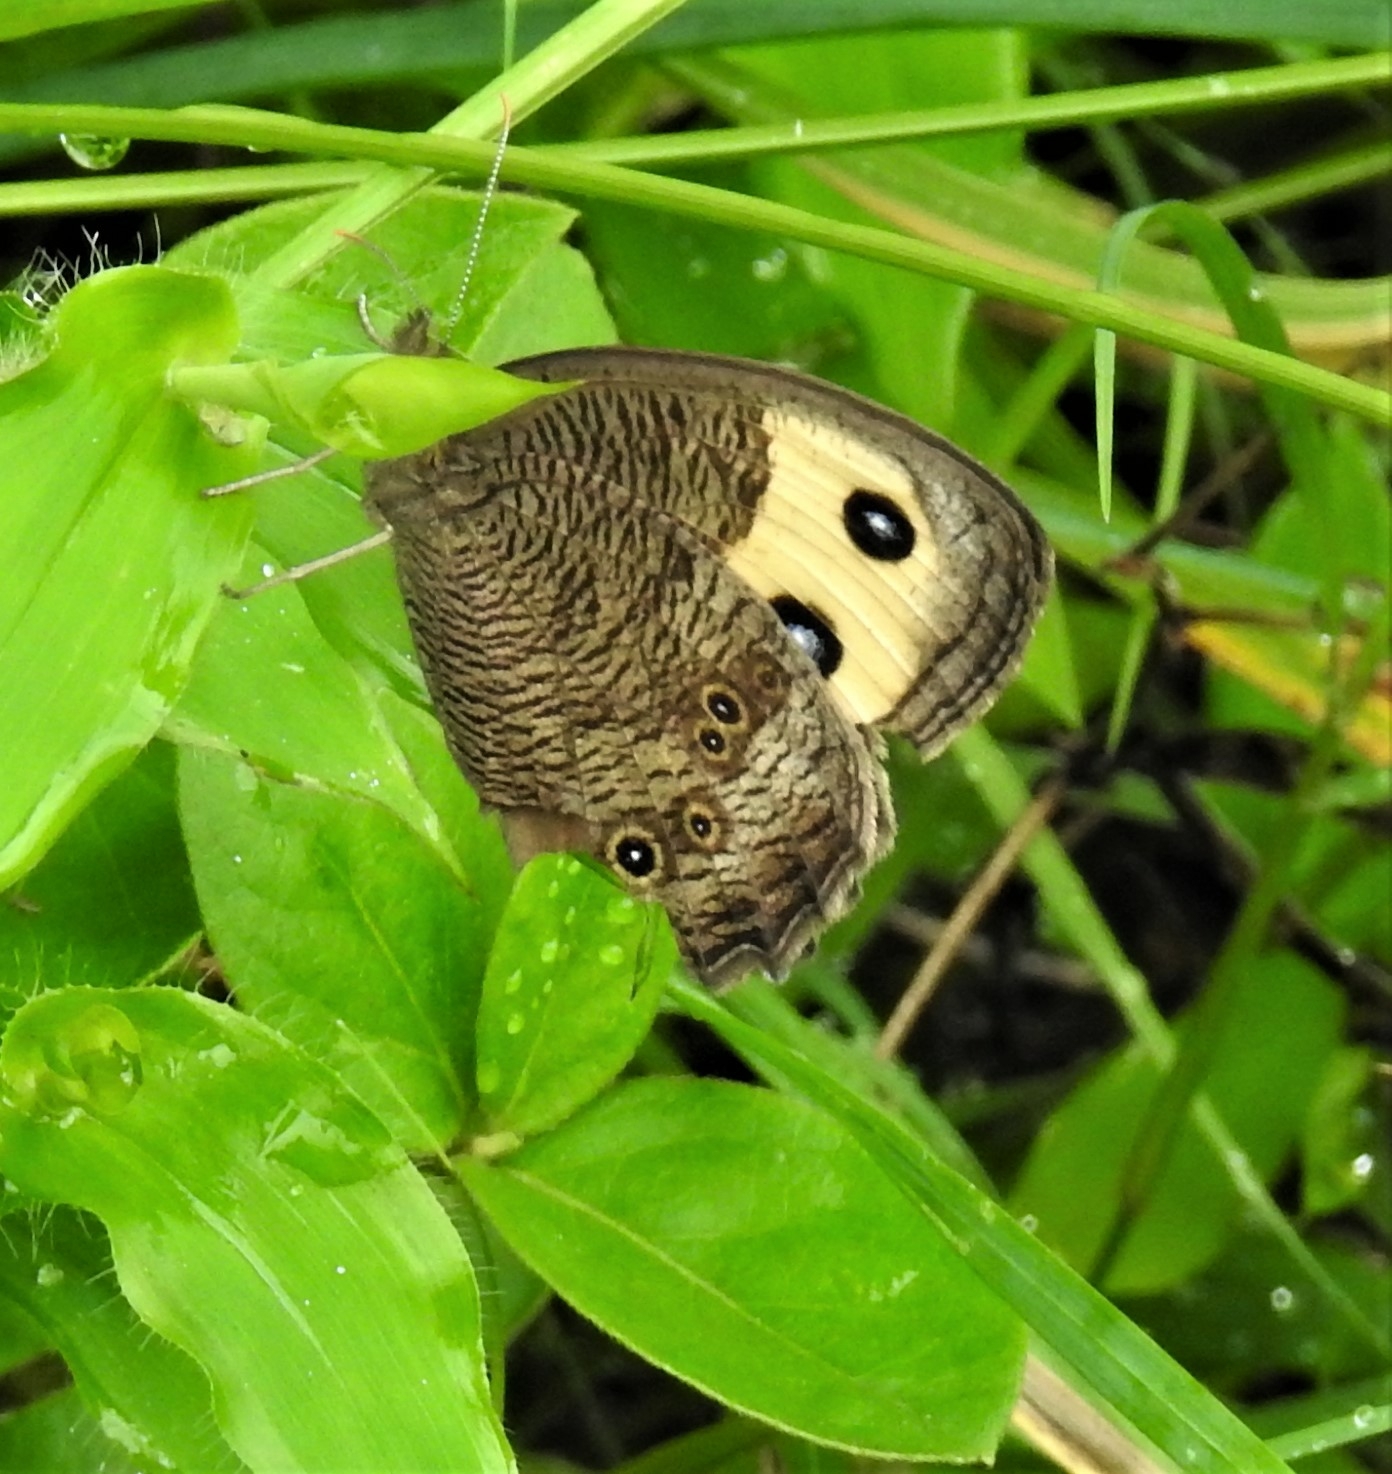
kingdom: Animalia
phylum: Arthropoda
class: Insecta
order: Lepidoptera
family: Nymphalidae
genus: Cercyonis
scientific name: Cercyonis pegala
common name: Common wood-nymph
